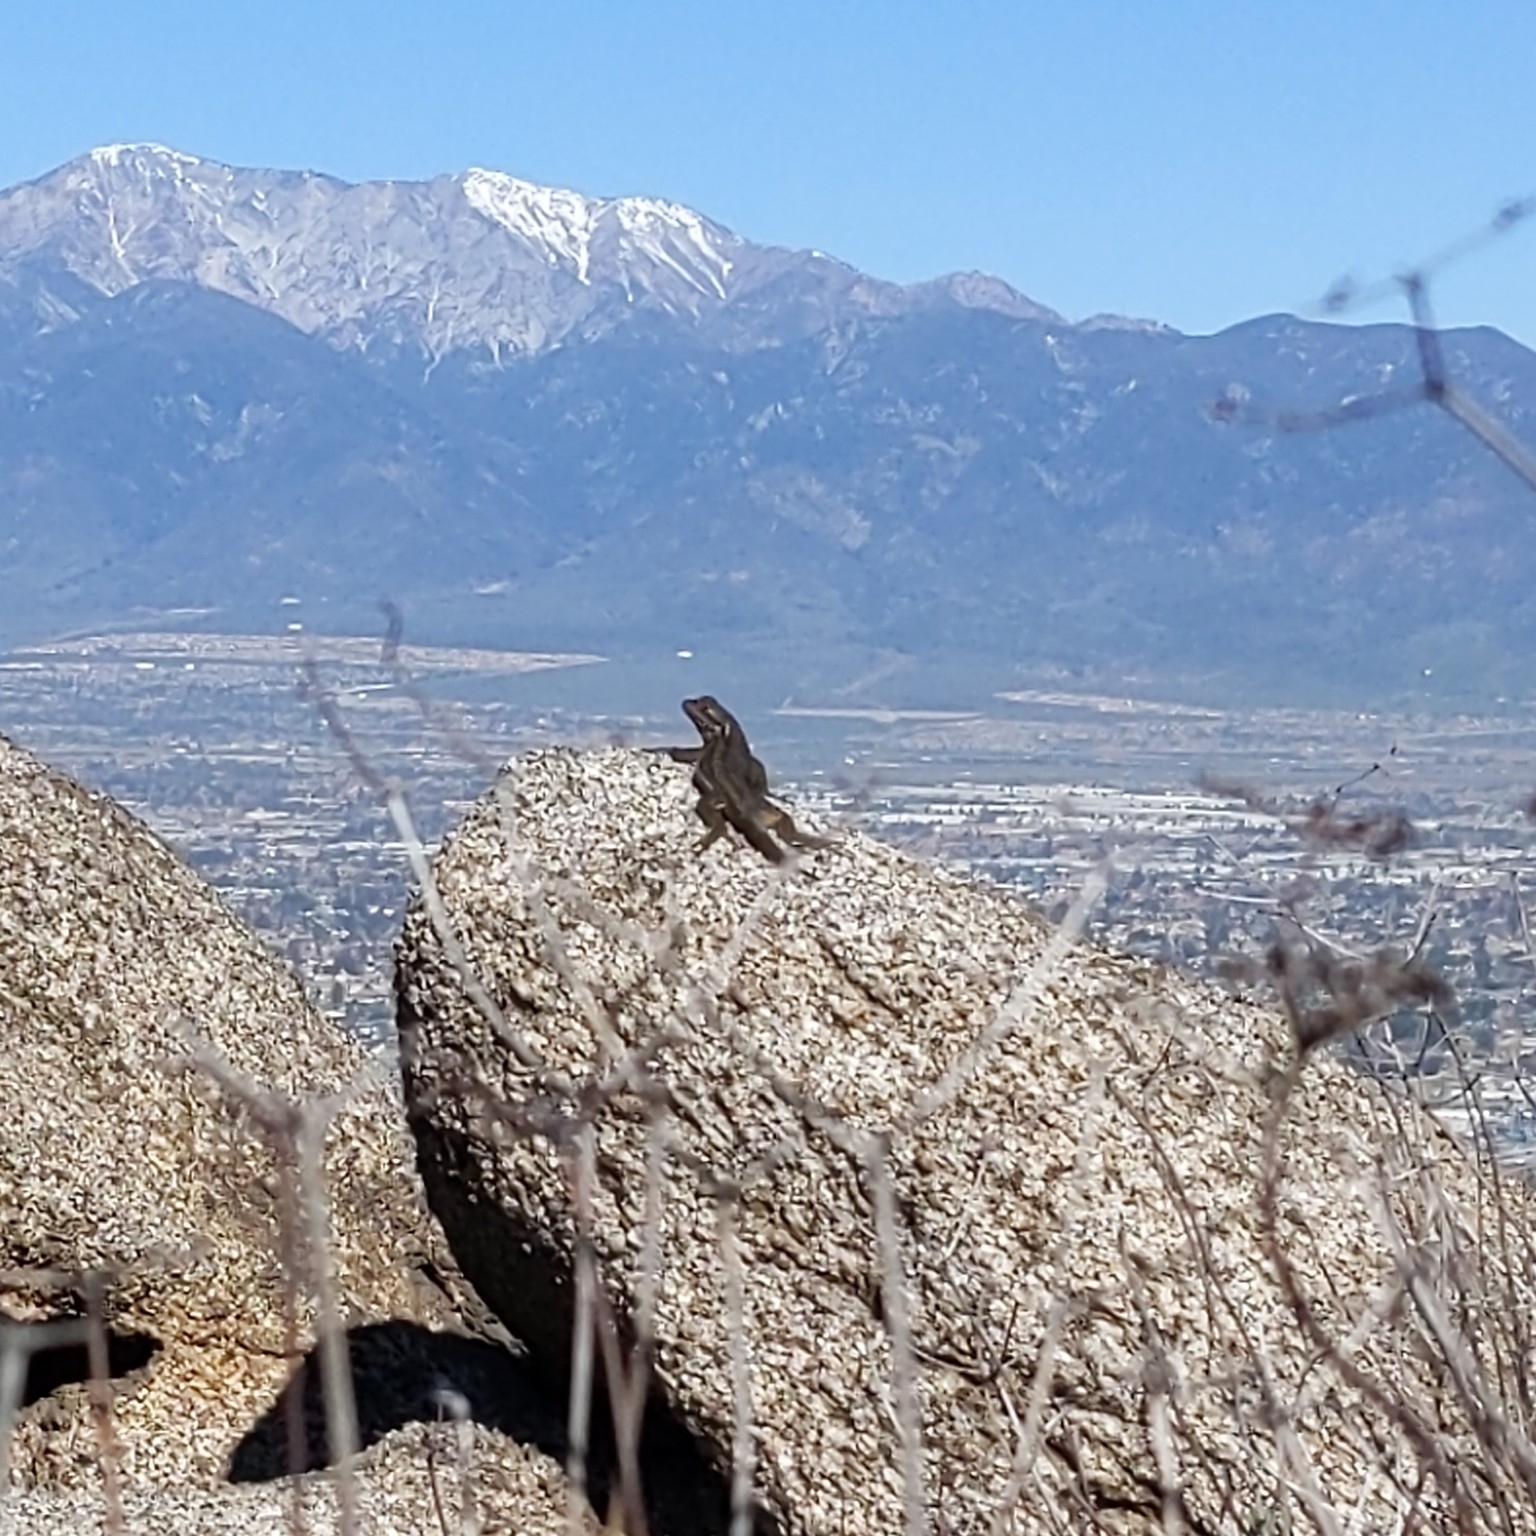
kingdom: Animalia
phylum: Chordata
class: Squamata
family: Phrynosomatidae
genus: Sceloporus
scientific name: Sceloporus occidentalis
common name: Western fence lizard
